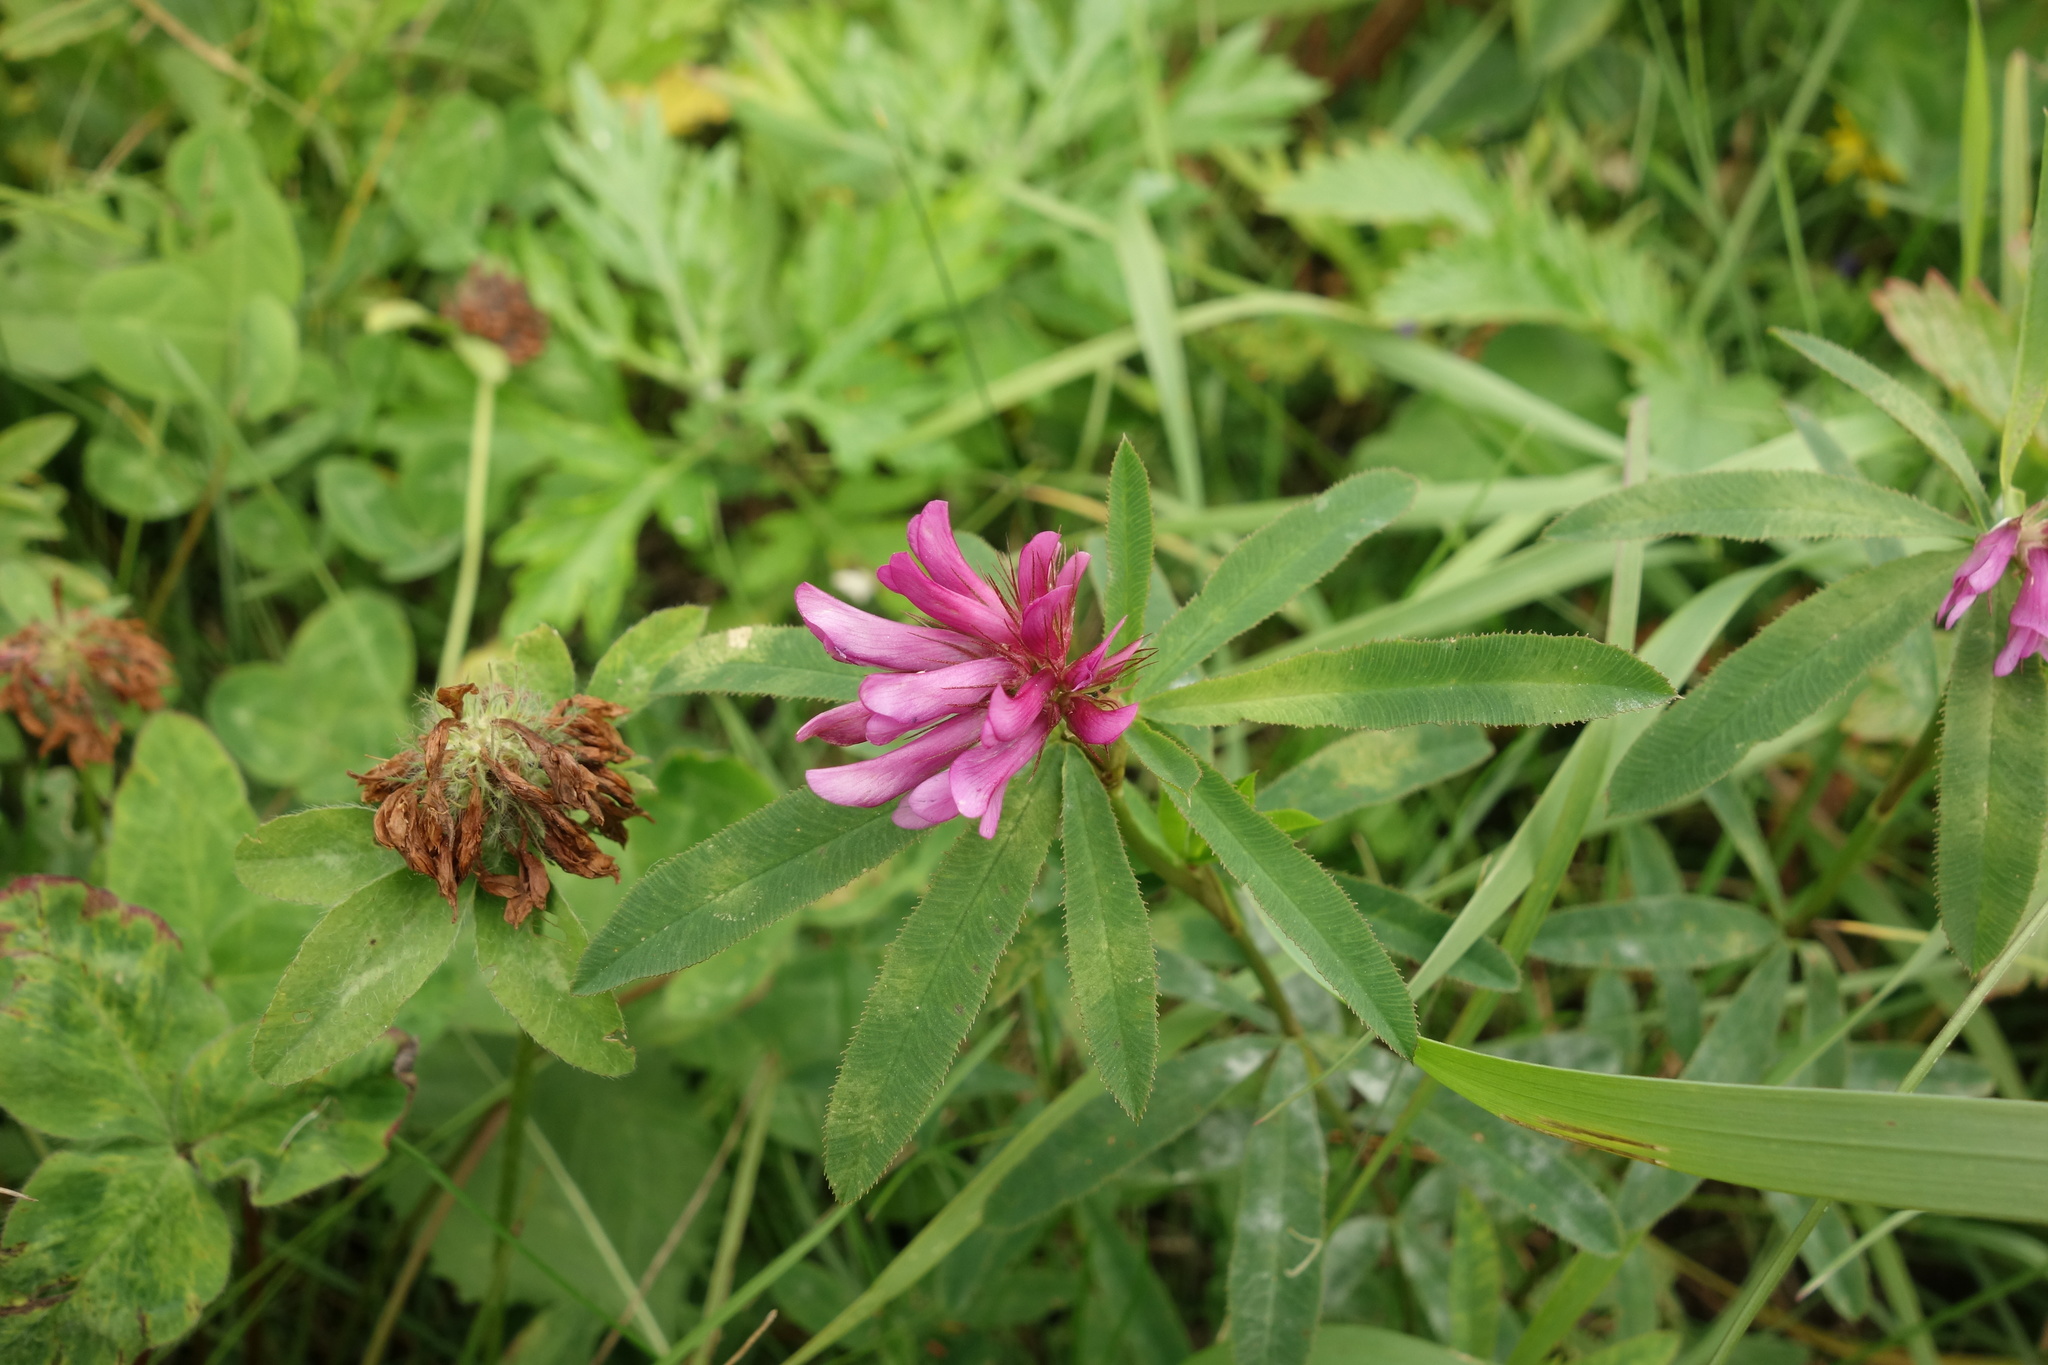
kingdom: Plantae
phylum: Tracheophyta
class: Magnoliopsida
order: Fabales
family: Fabaceae
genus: Trifolium
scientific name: Trifolium lupinaster
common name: Lupine clover
